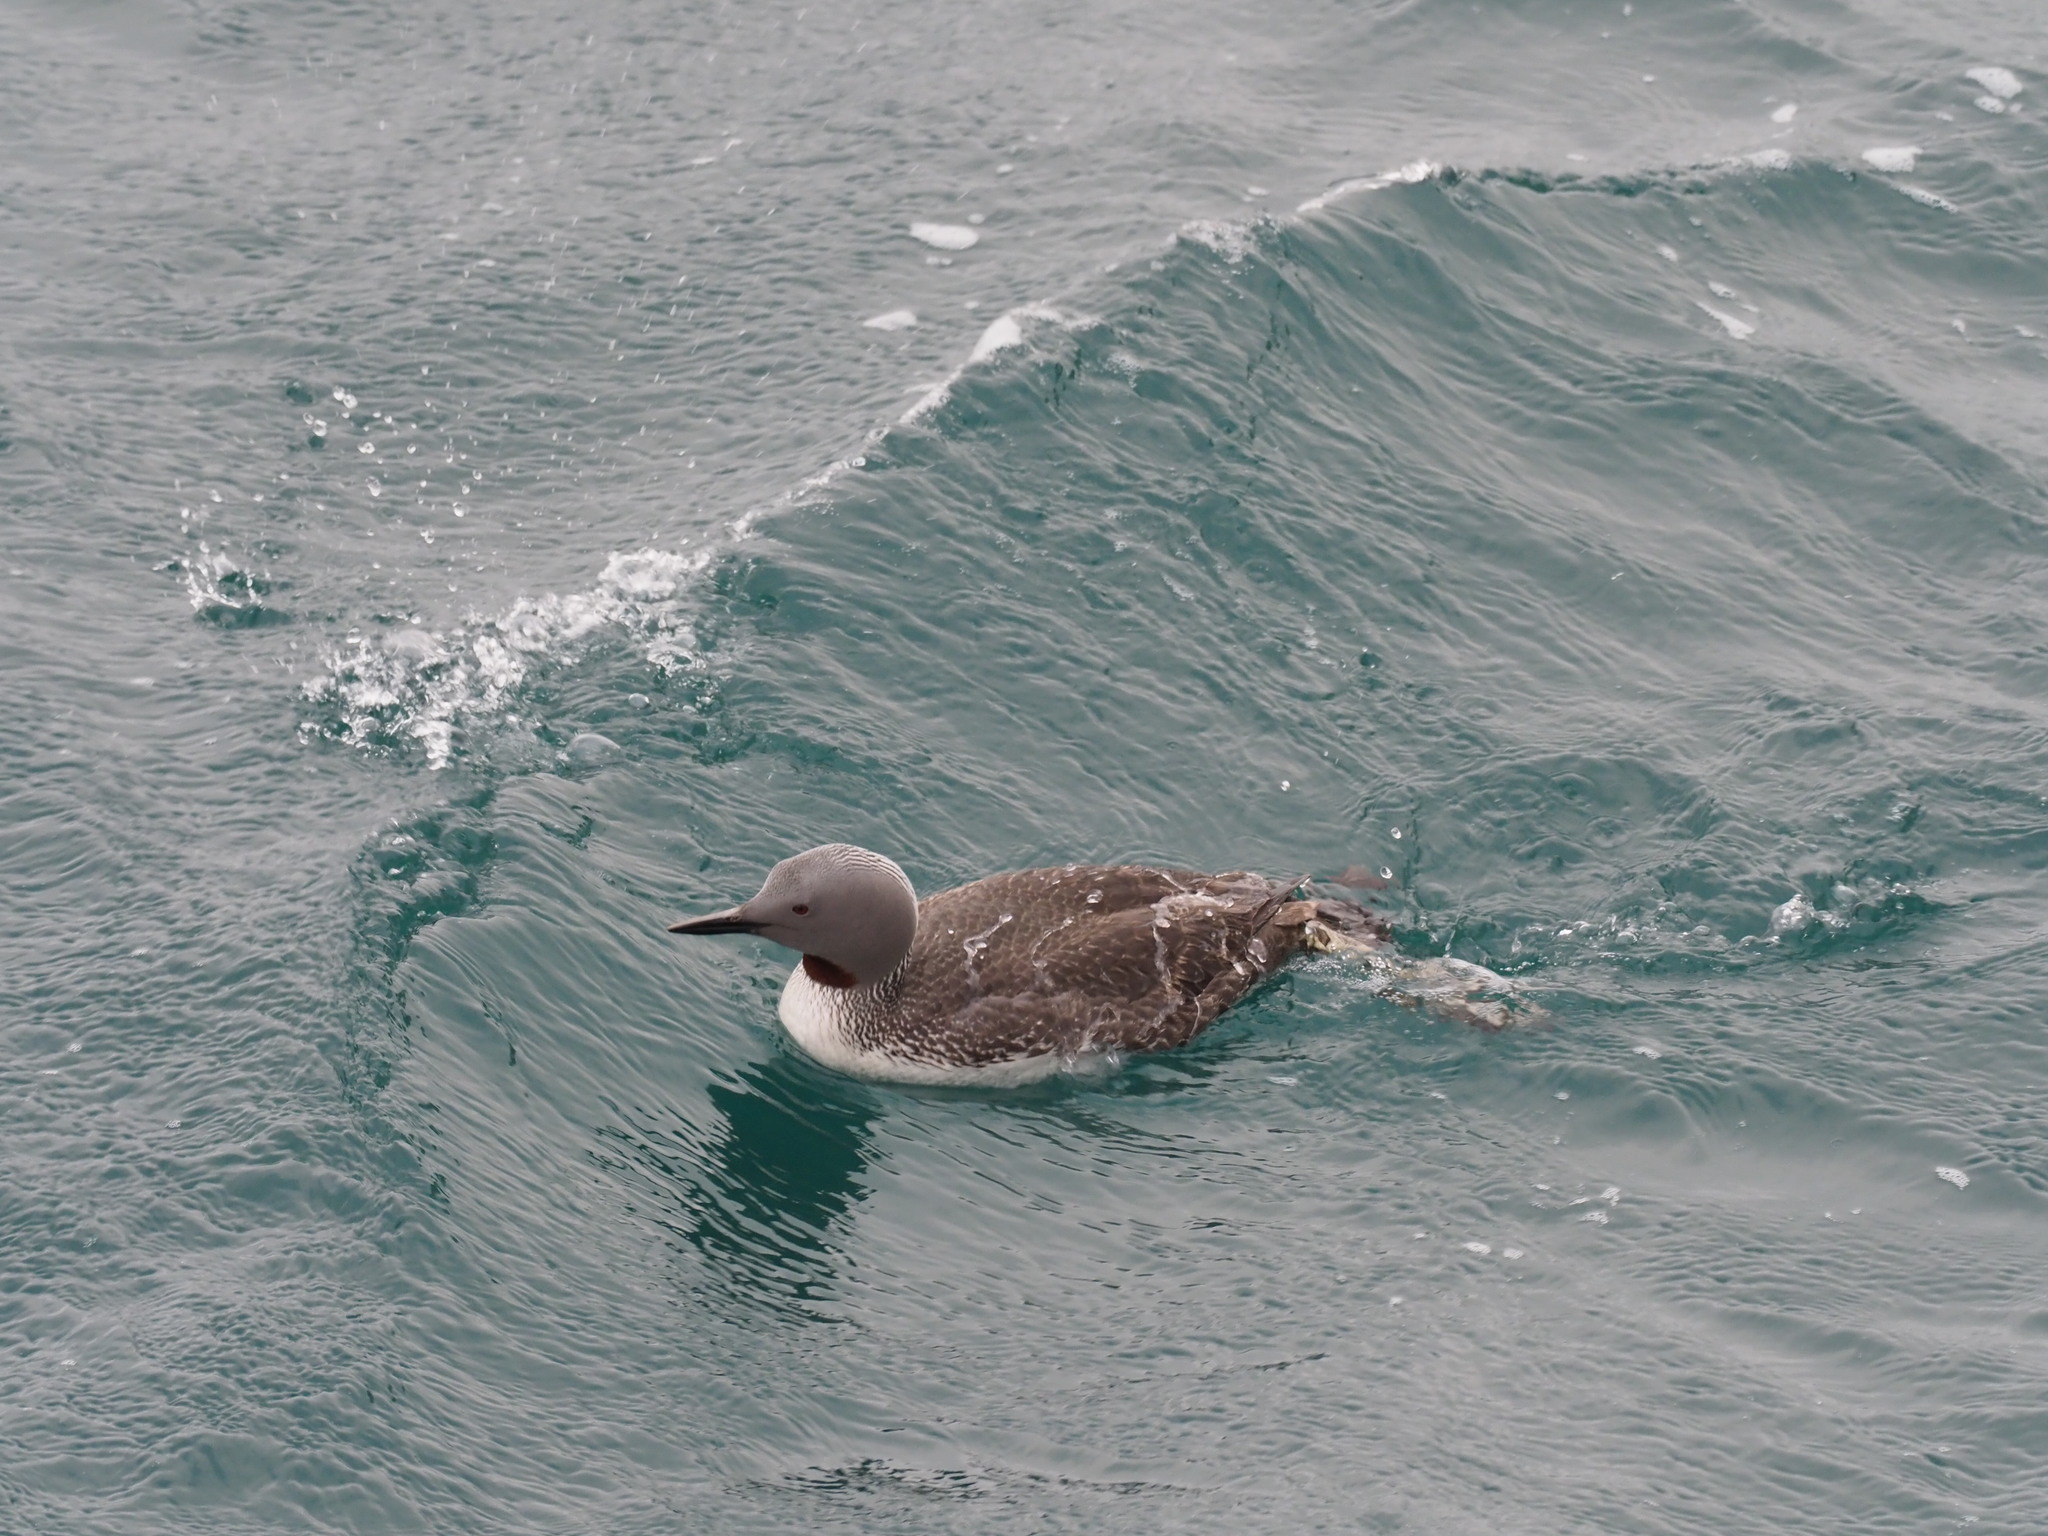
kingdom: Animalia
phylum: Chordata
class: Aves
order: Gaviiformes
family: Gaviidae
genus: Gavia
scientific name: Gavia stellata
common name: Red-throated loon
